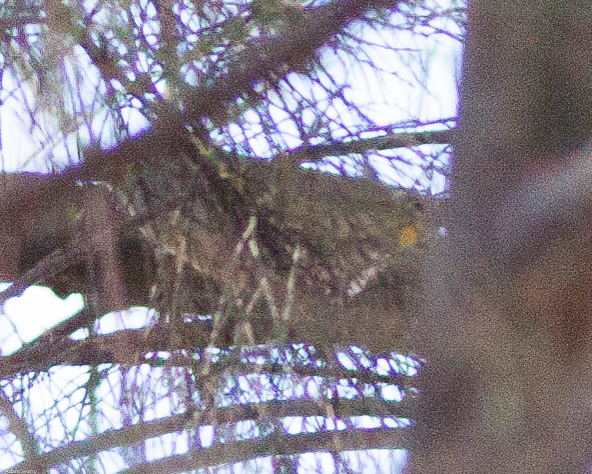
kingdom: Animalia
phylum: Chordata
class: Aves
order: Passeriformes
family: Parulidae
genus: Leiothlypis
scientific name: Leiothlypis virginiae
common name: Virginia's warbler
